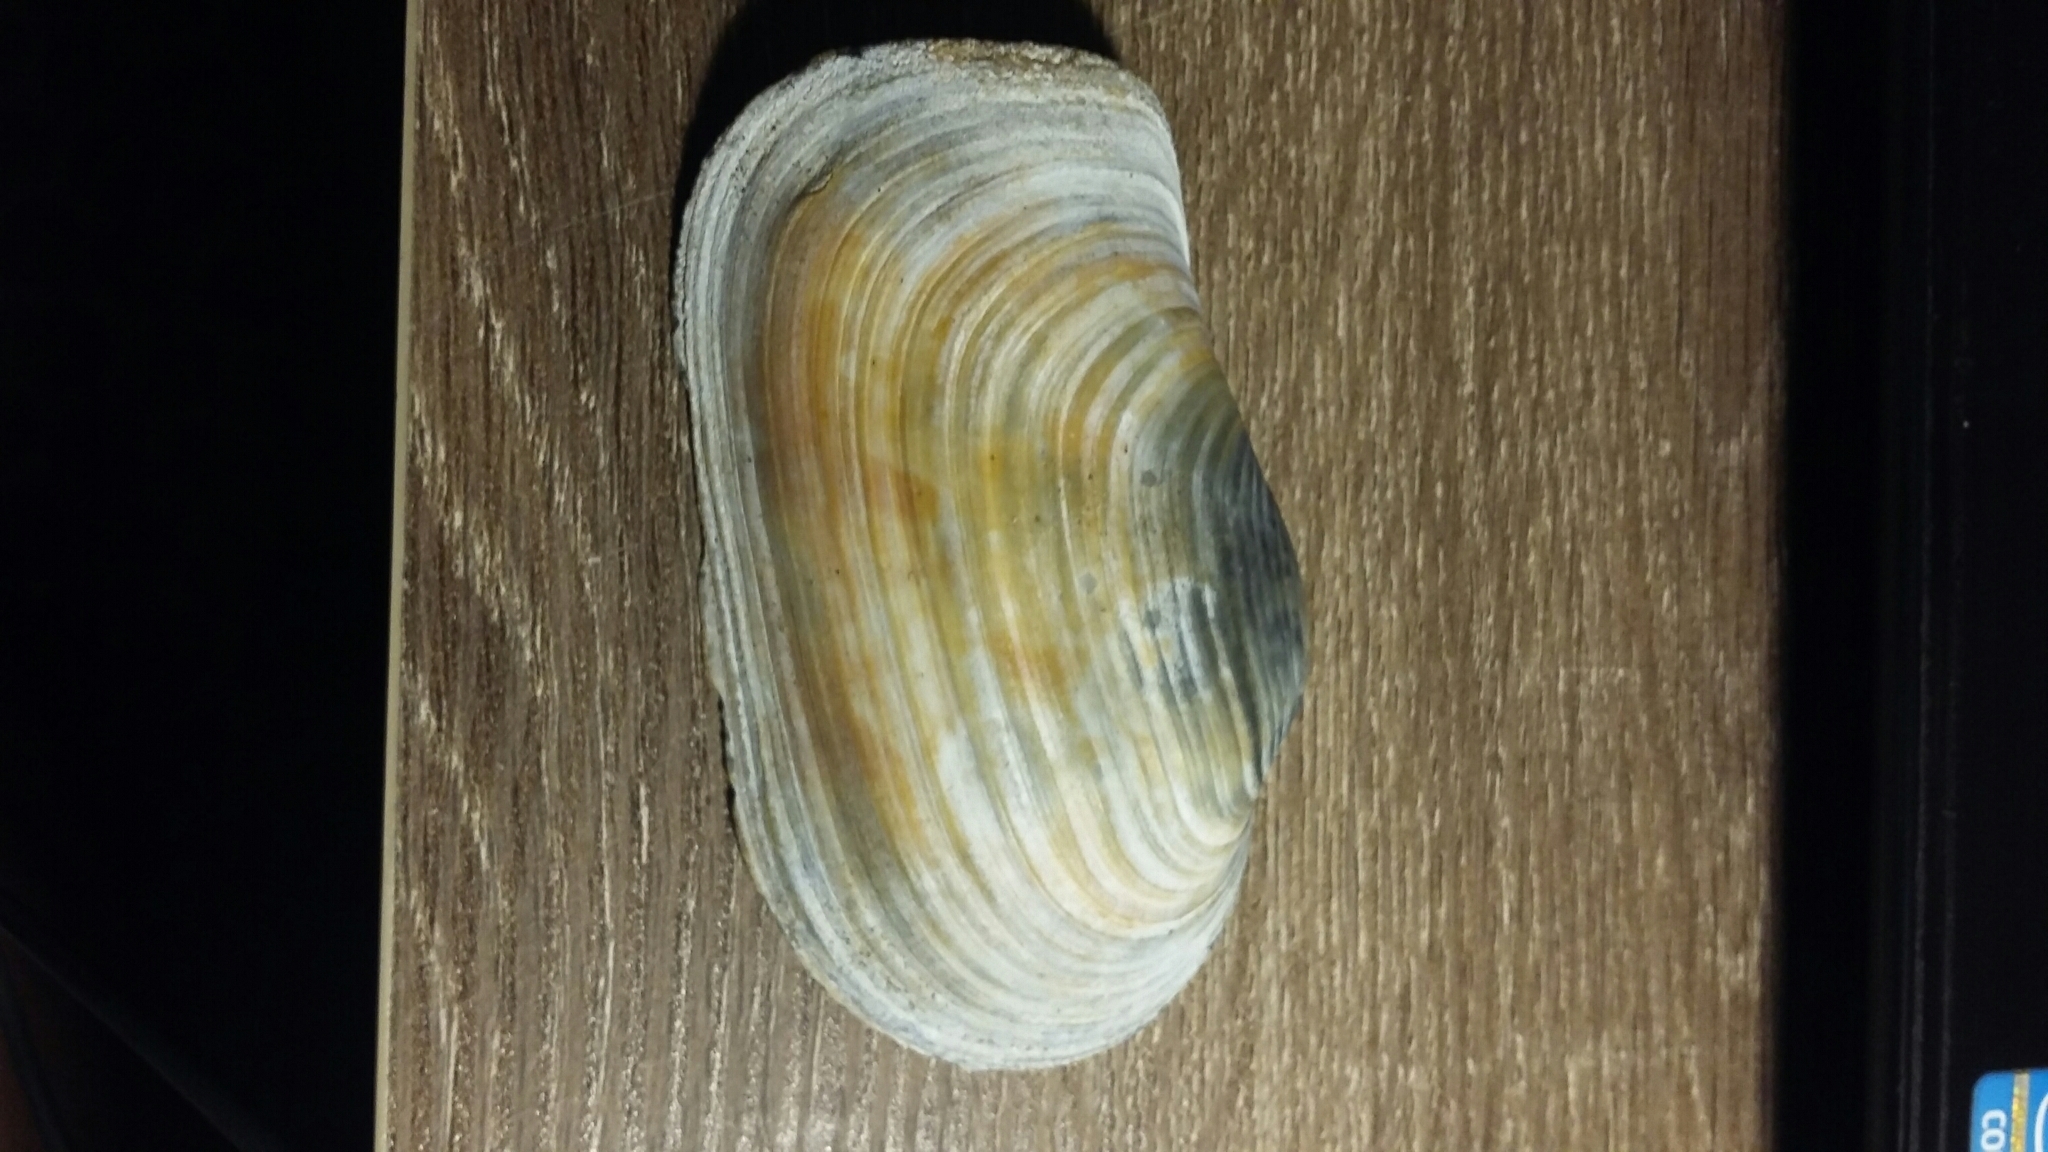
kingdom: Animalia
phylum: Mollusca
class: Bivalvia
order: Adapedonta
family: Hiatellidae
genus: Panopea
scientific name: Panopea zelandica
